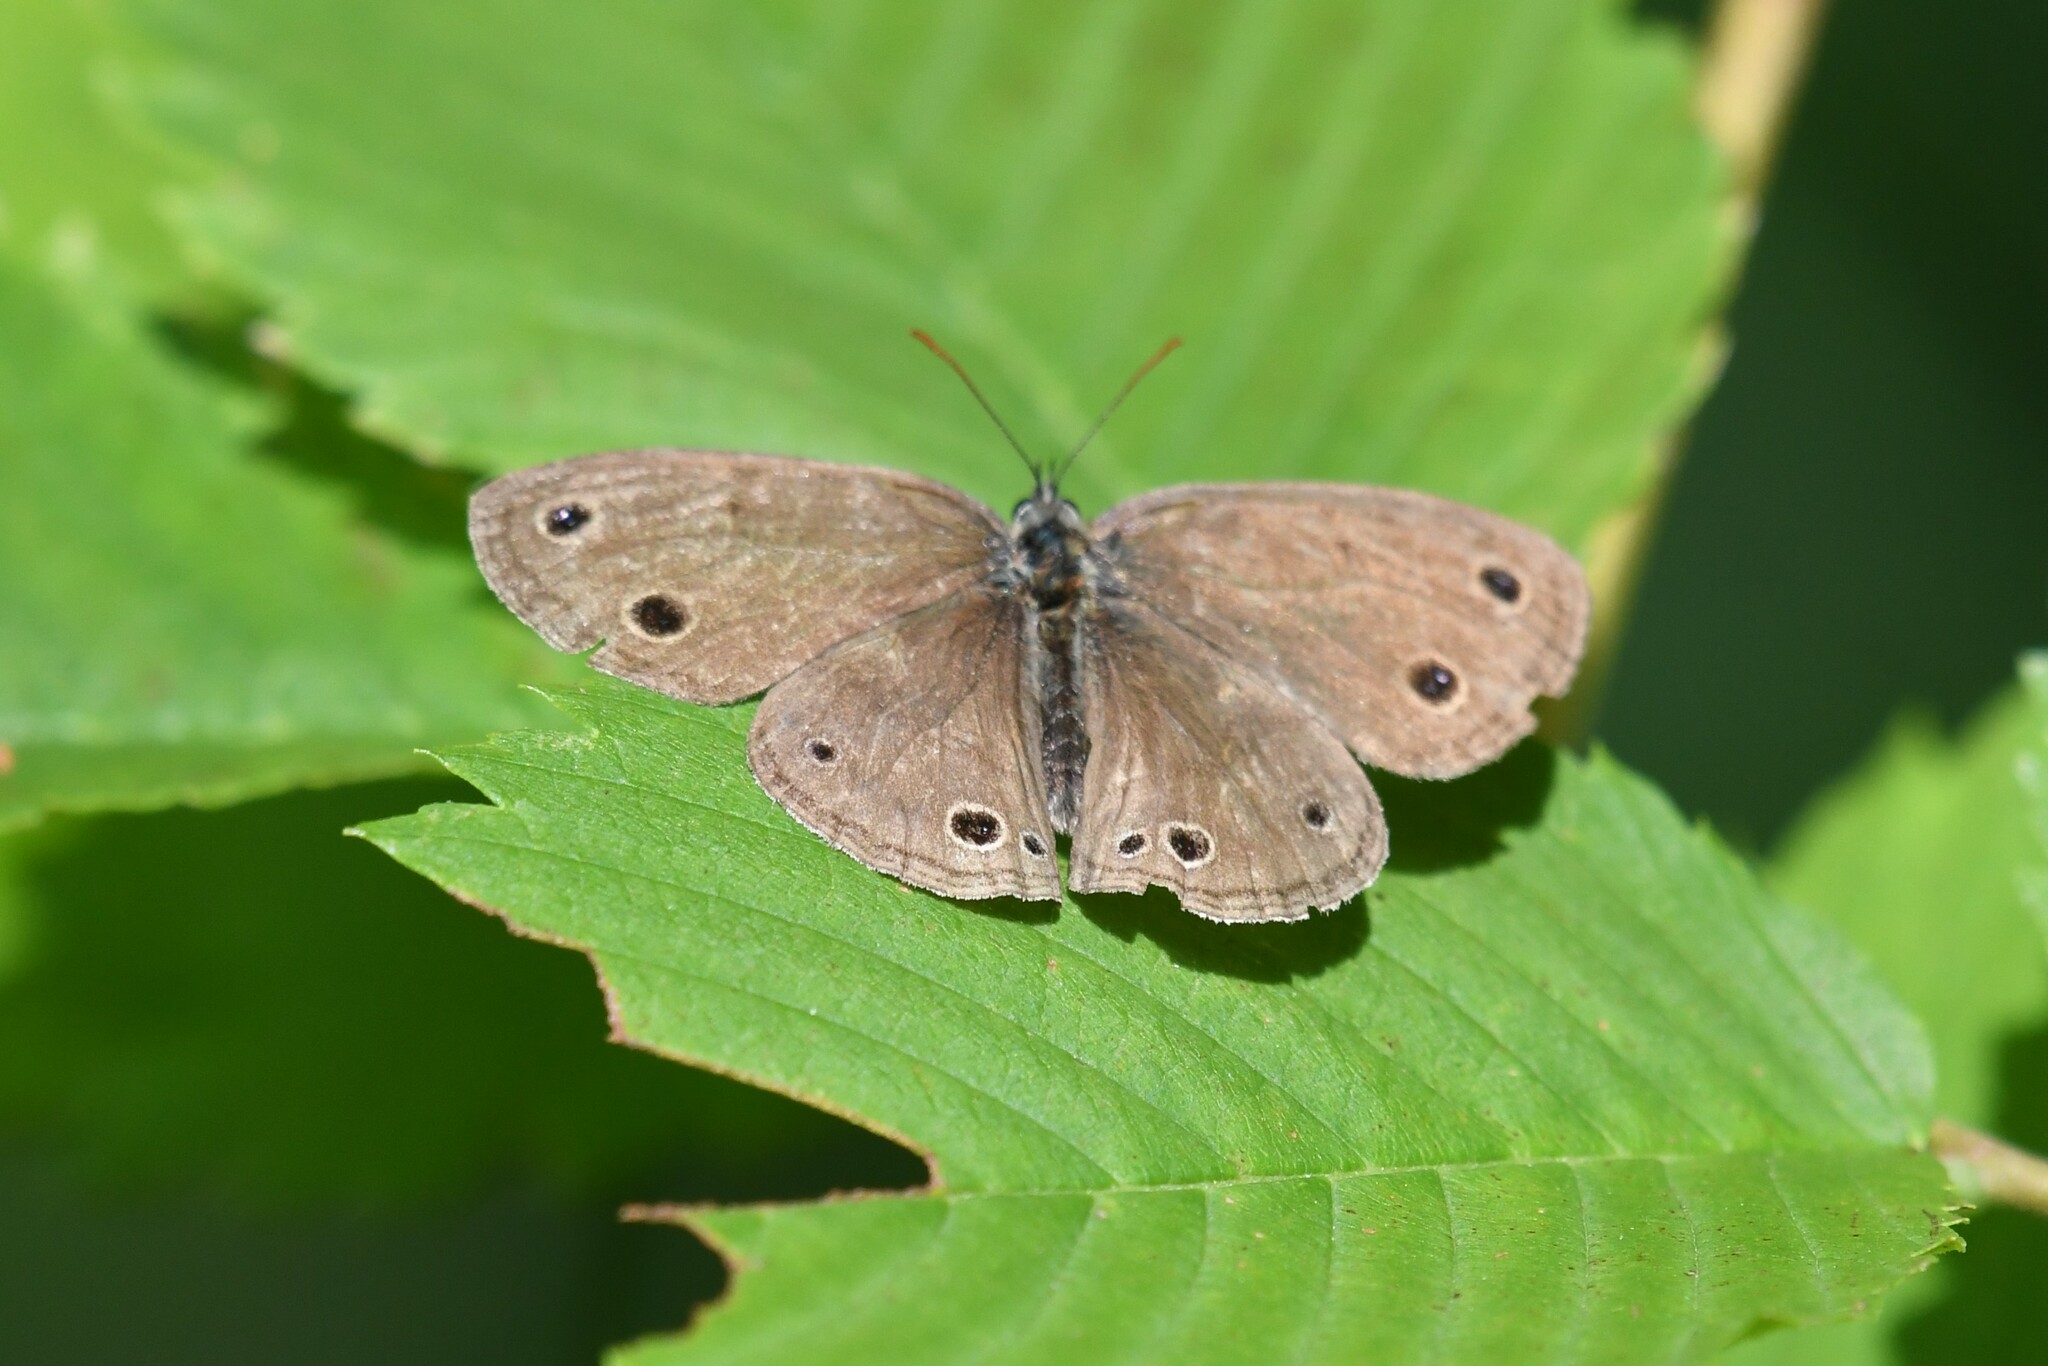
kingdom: Animalia
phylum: Arthropoda
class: Insecta
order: Lepidoptera
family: Nymphalidae
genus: Euptychia
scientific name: Euptychia cymela
